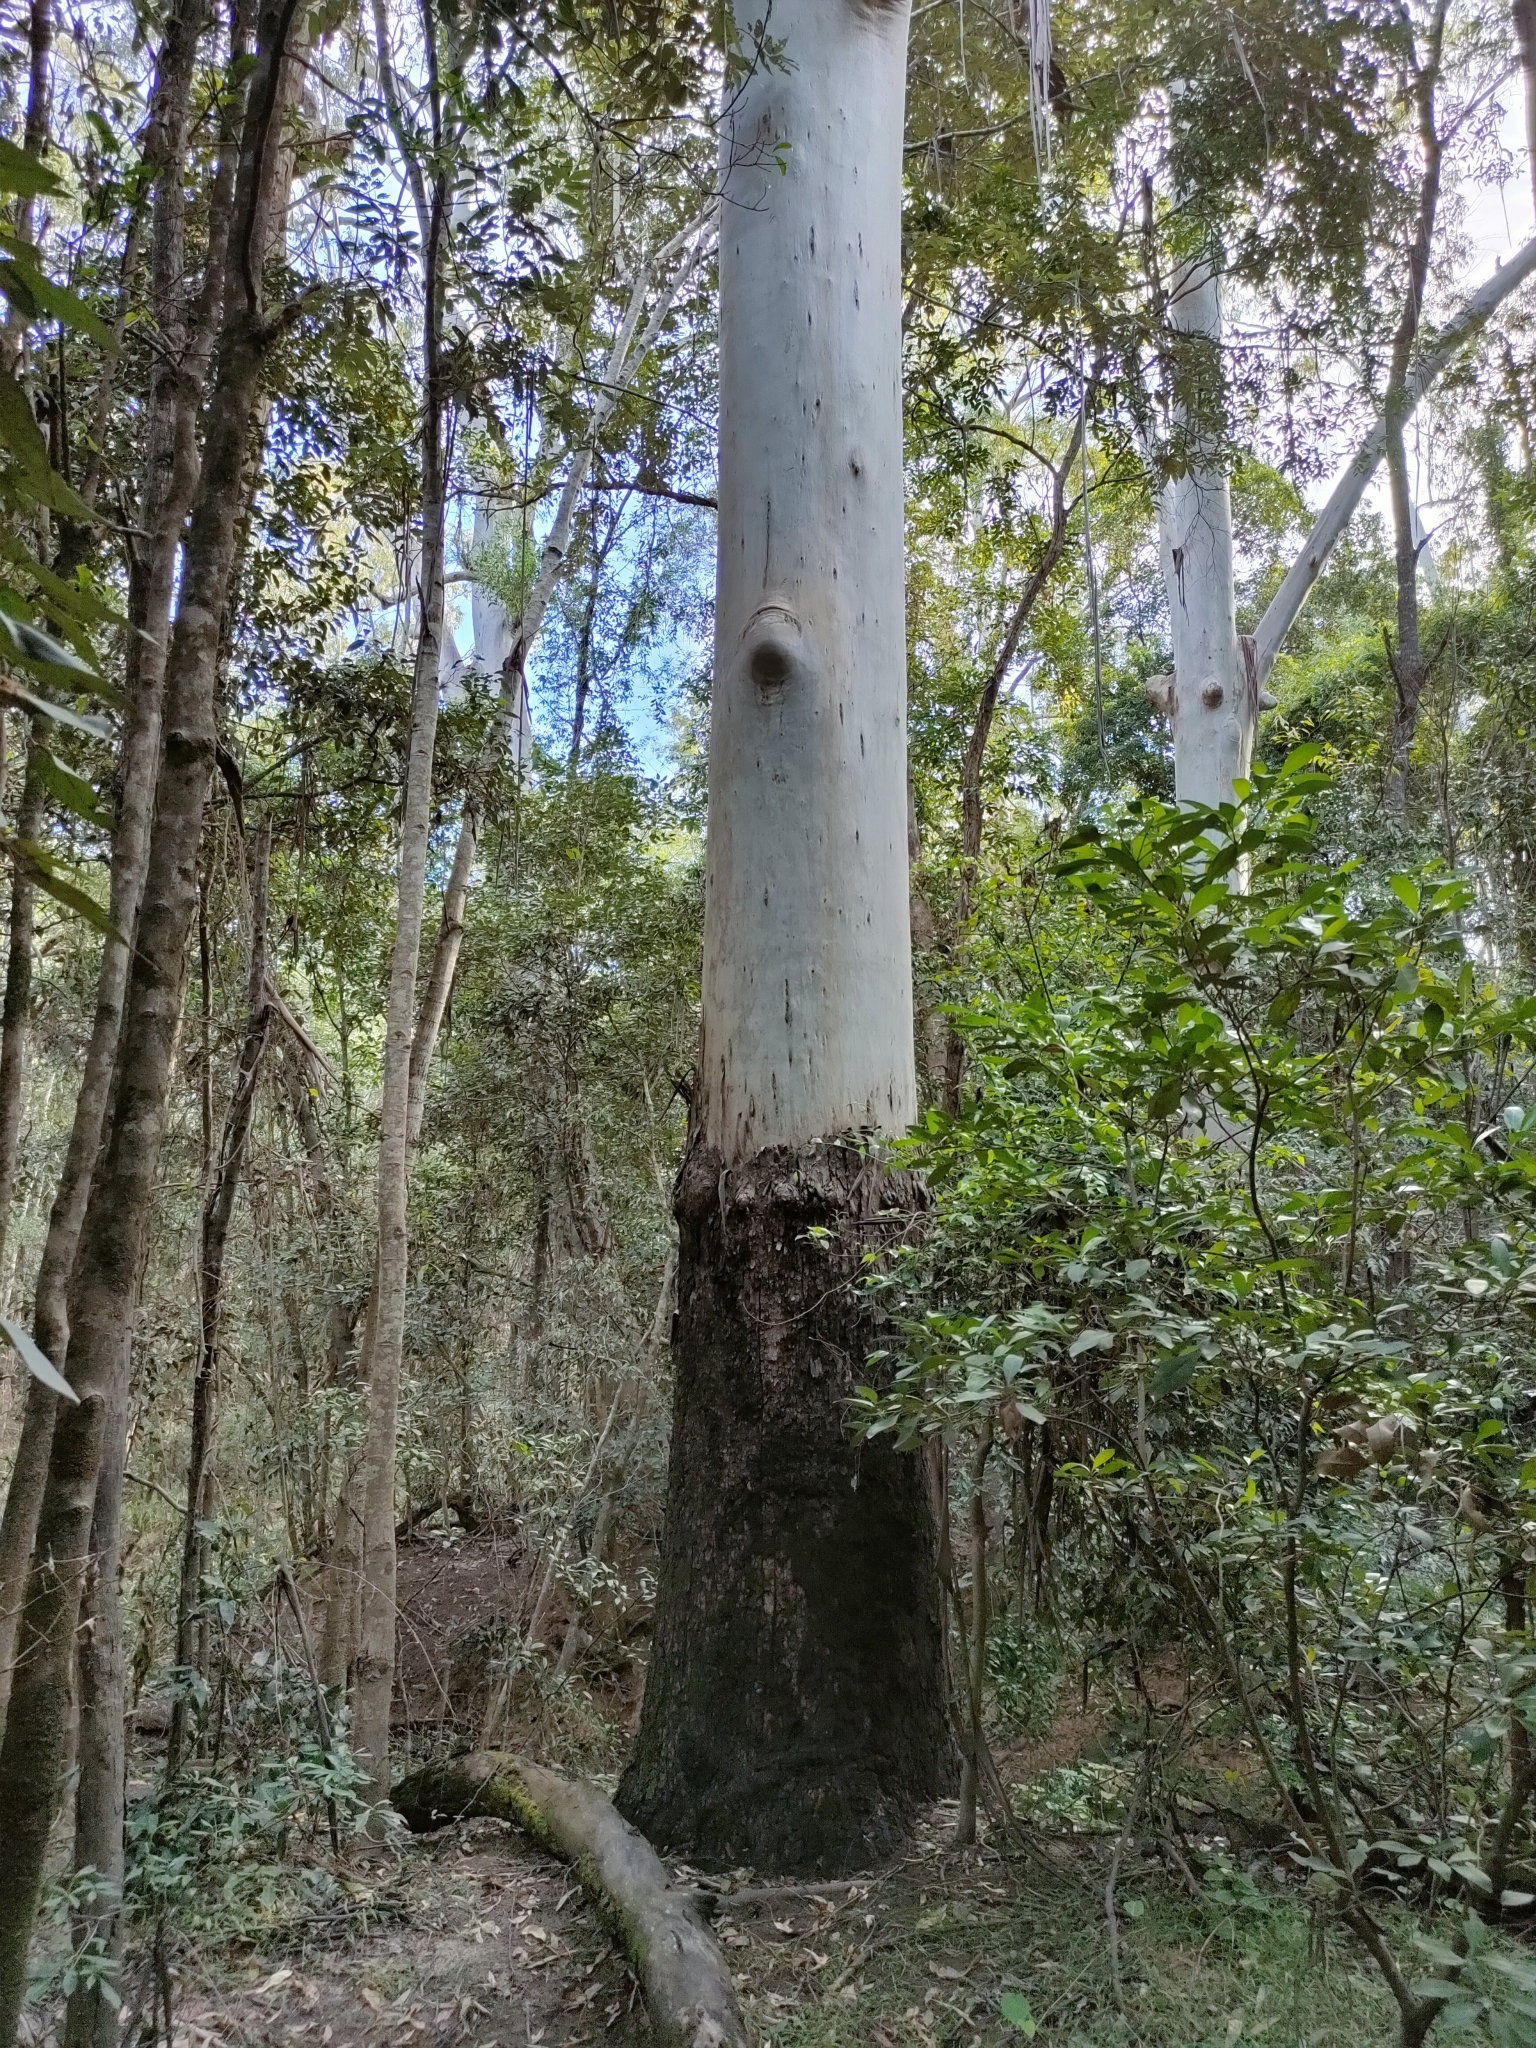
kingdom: Plantae
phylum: Tracheophyta
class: Magnoliopsida
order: Myrtales
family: Myrtaceae
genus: Eucalyptus
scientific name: Eucalyptus grandis
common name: Grand eucalyptus
